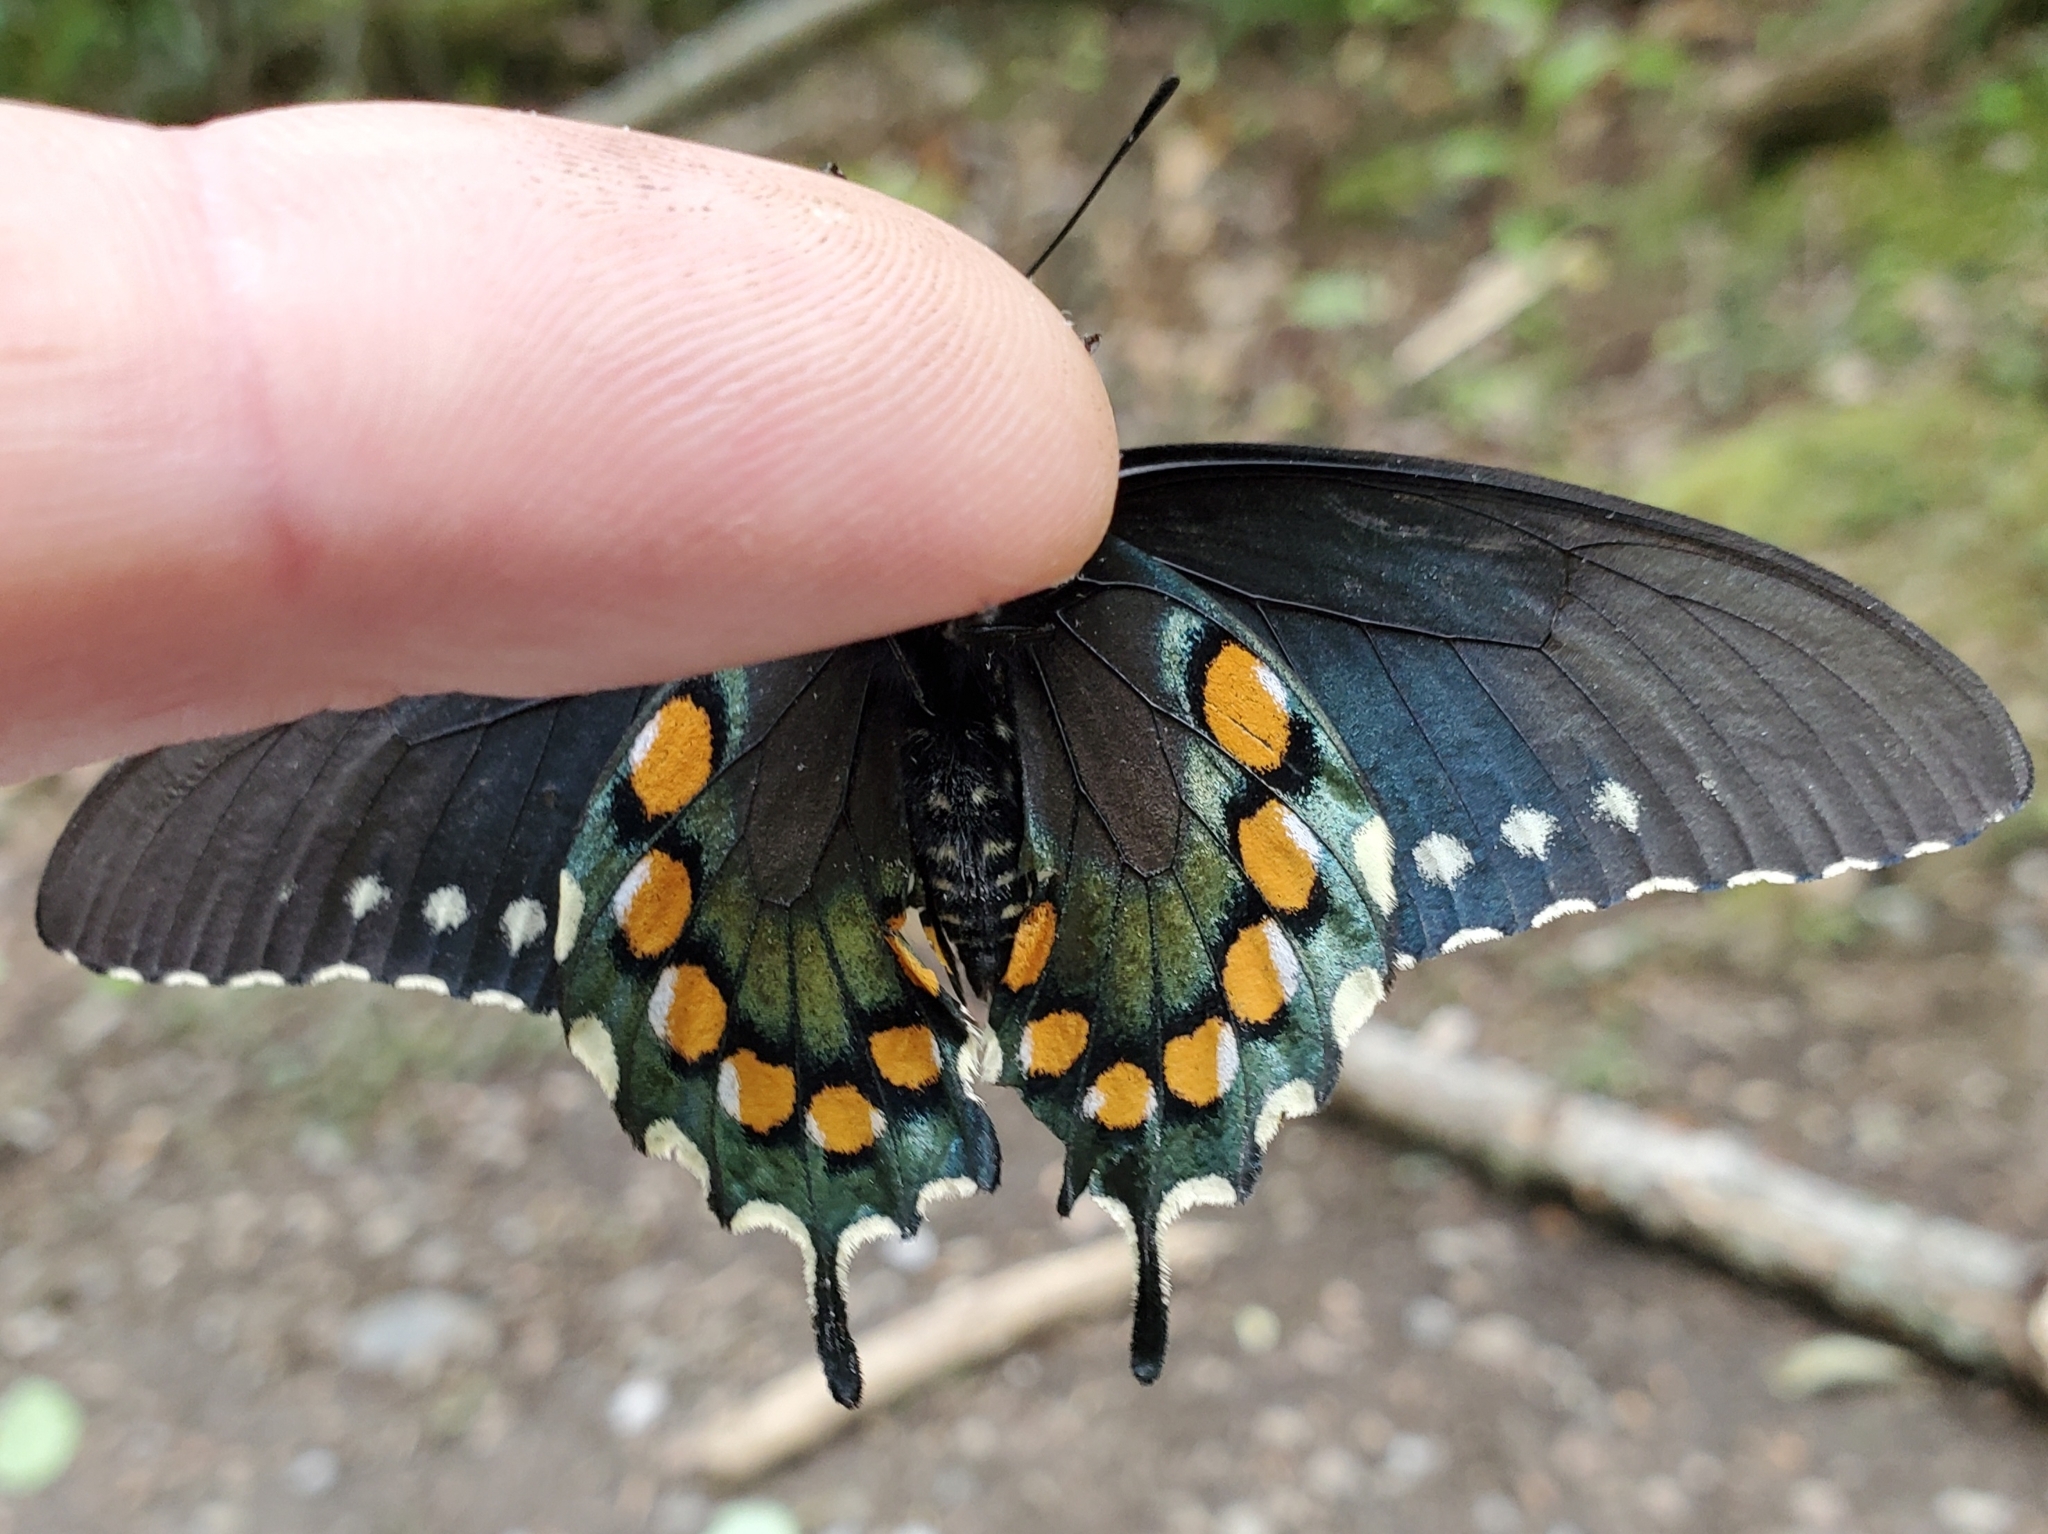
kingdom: Animalia
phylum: Arthropoda
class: Insecta
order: Lepidoptera
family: Papilionidae
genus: Battus
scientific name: Battus philenor
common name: Pipevine swallowtail
